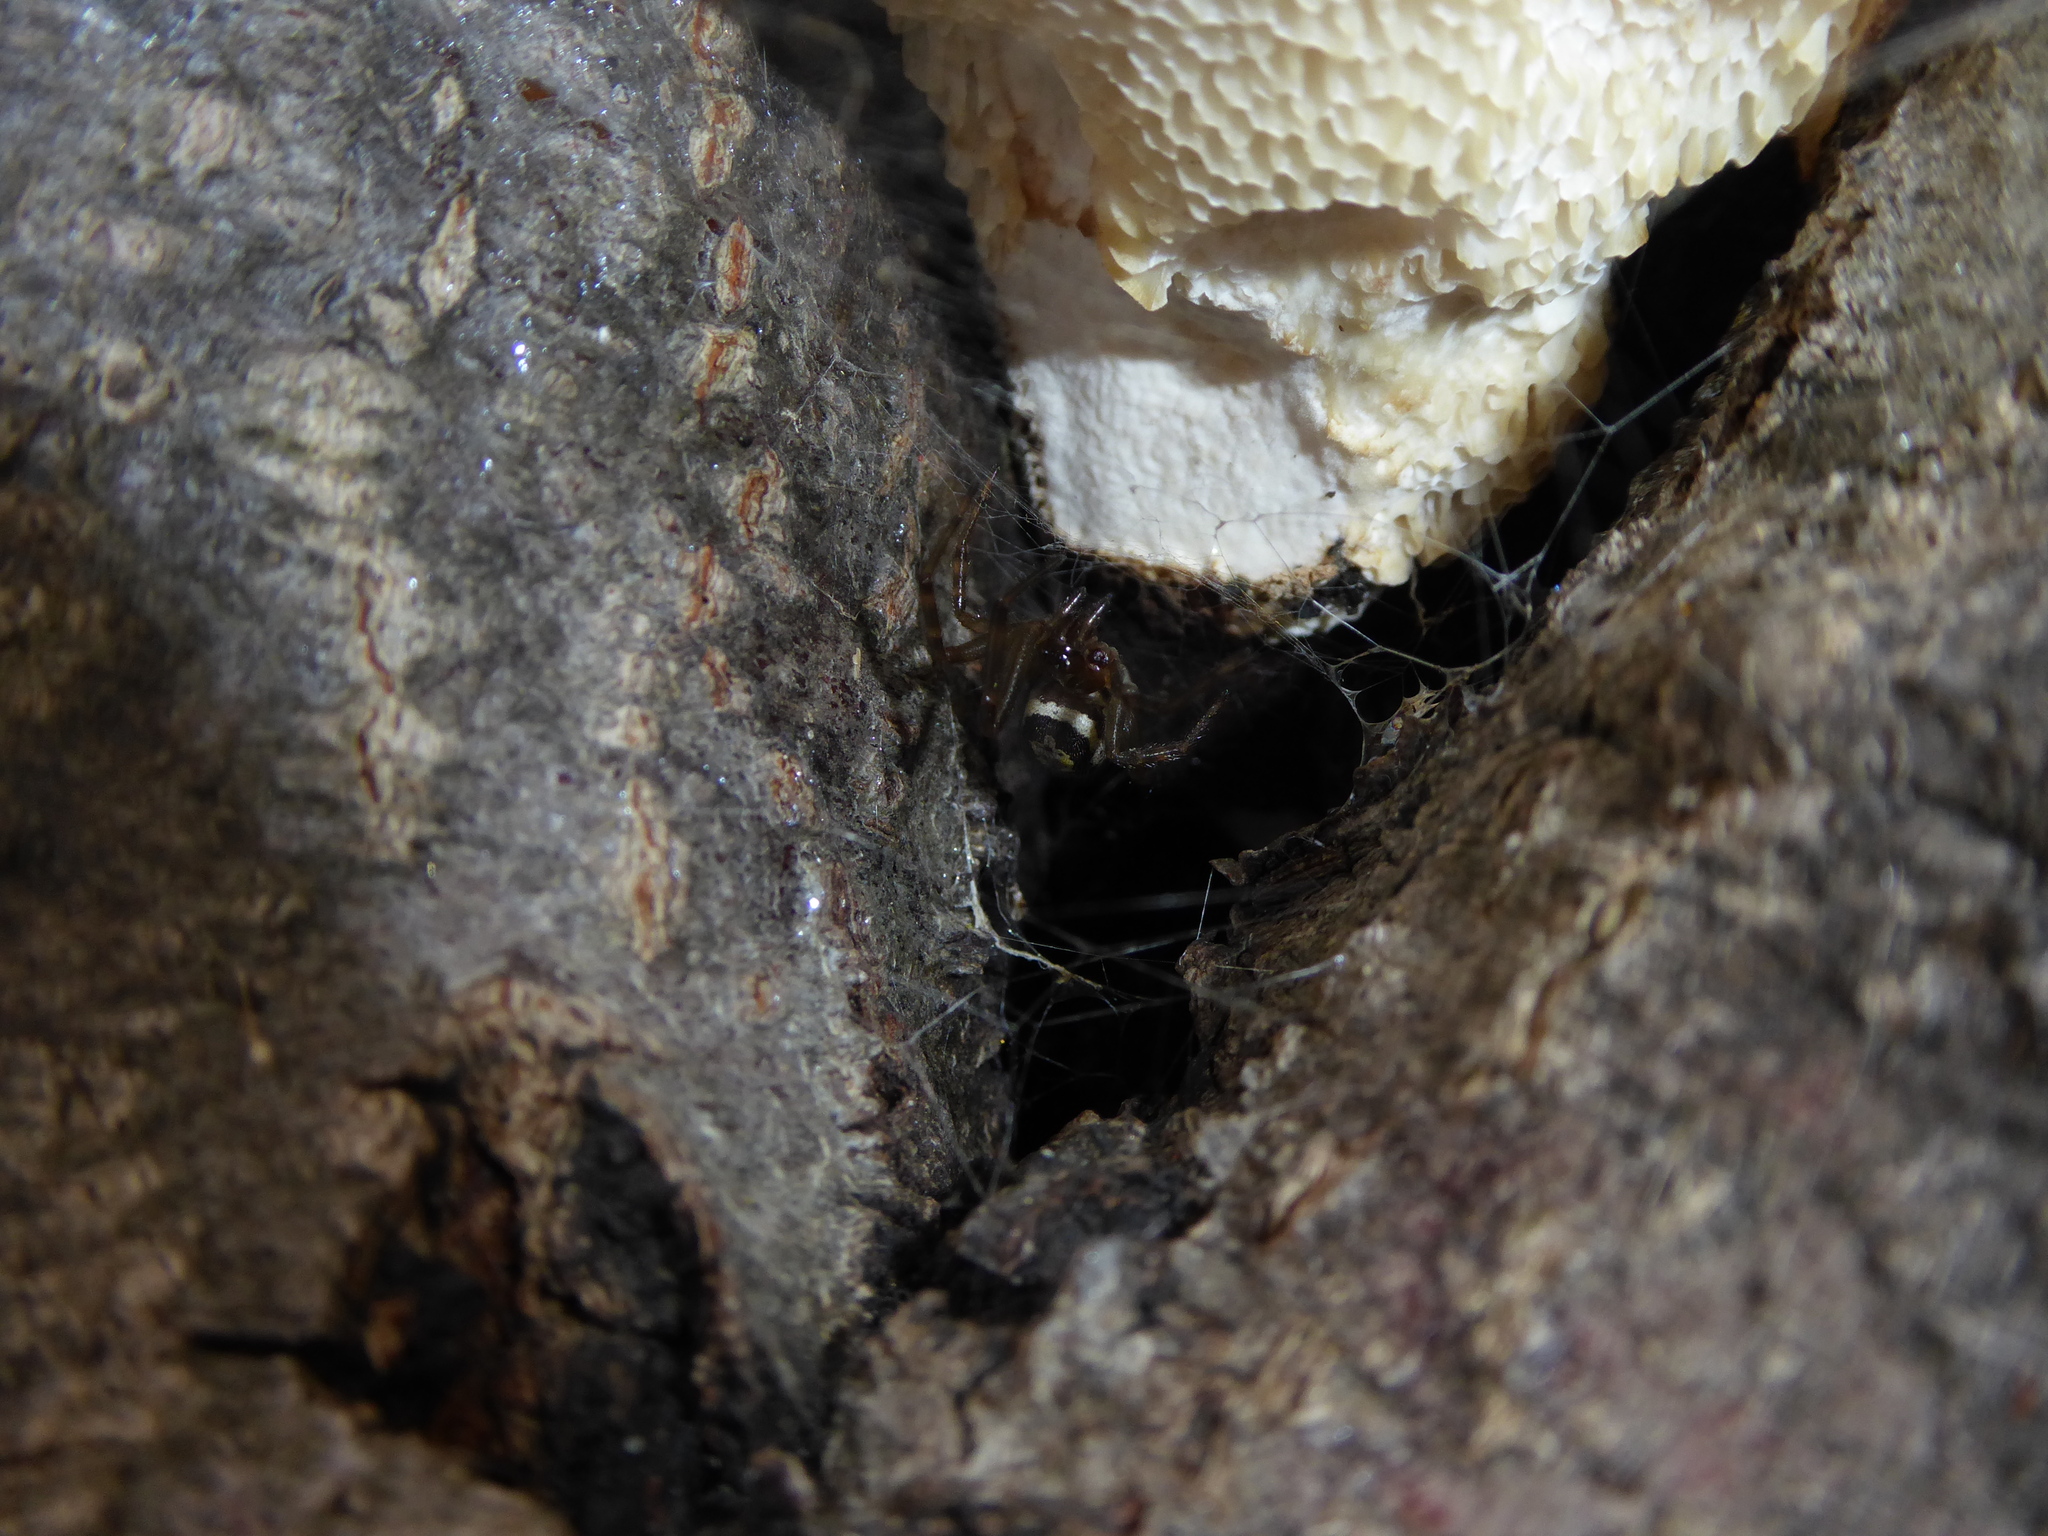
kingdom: Animalia
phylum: Arthropoda
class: Arachnida
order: Araneae
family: Theridiidae
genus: Steatoda
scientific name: Steatoda nobilis
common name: Cobweb weaver
